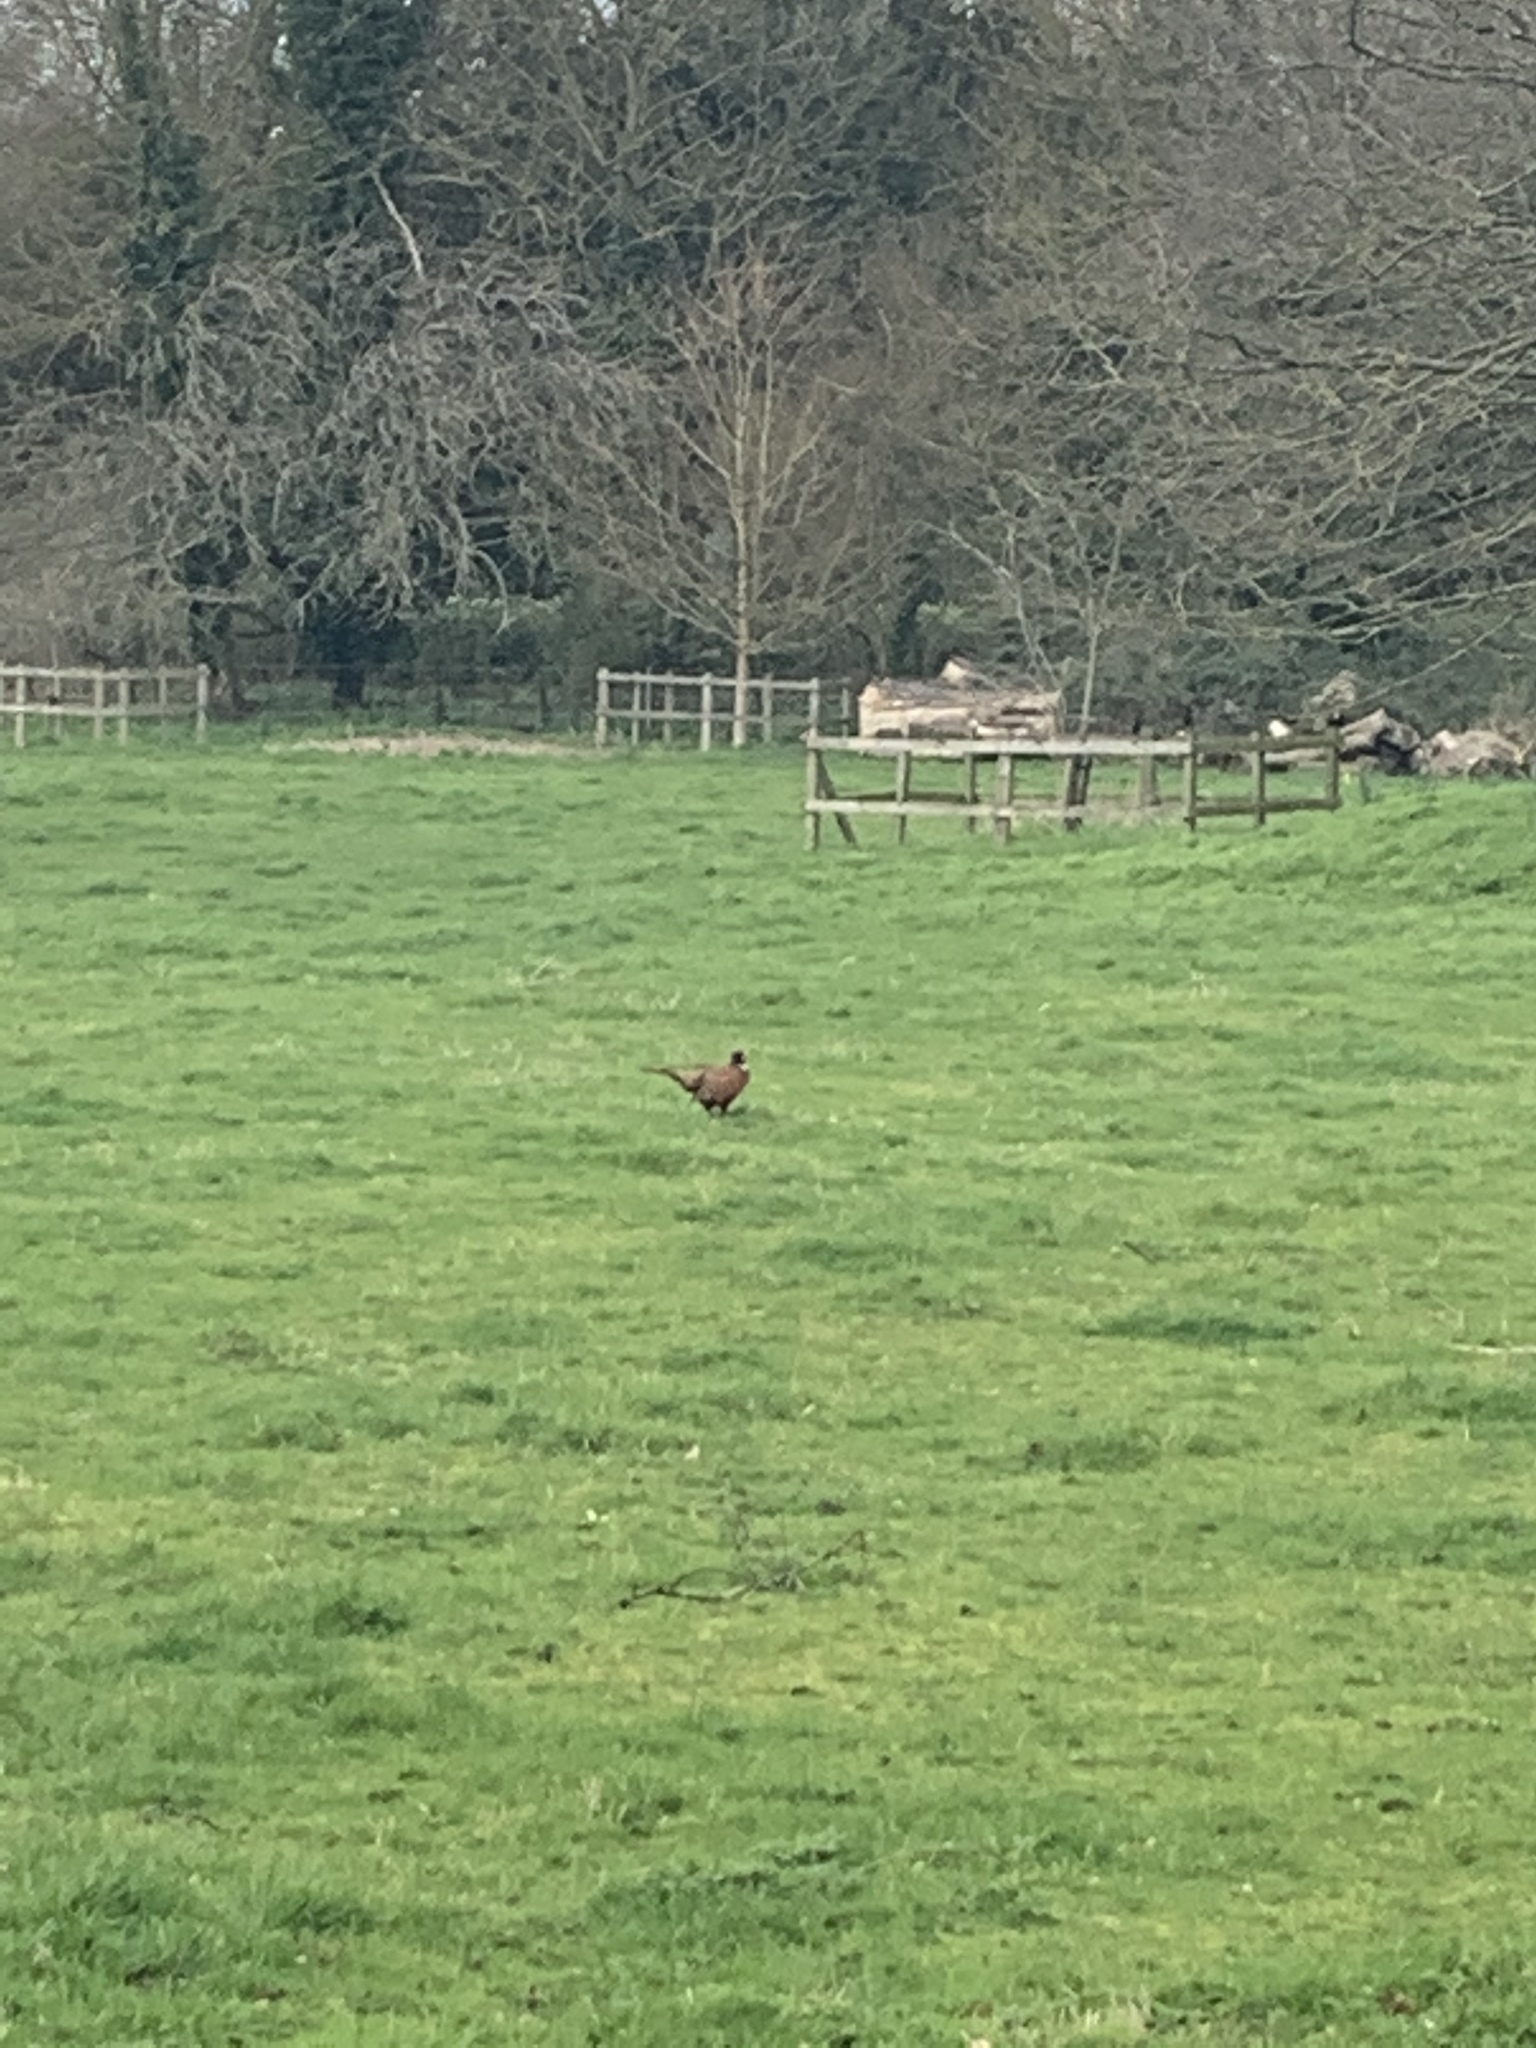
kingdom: Animalia
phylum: Chordata
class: Aves
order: Galliformes
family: Phasianidae
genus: Phasianus
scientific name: Phasianus colchicus
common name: Common pheasant
